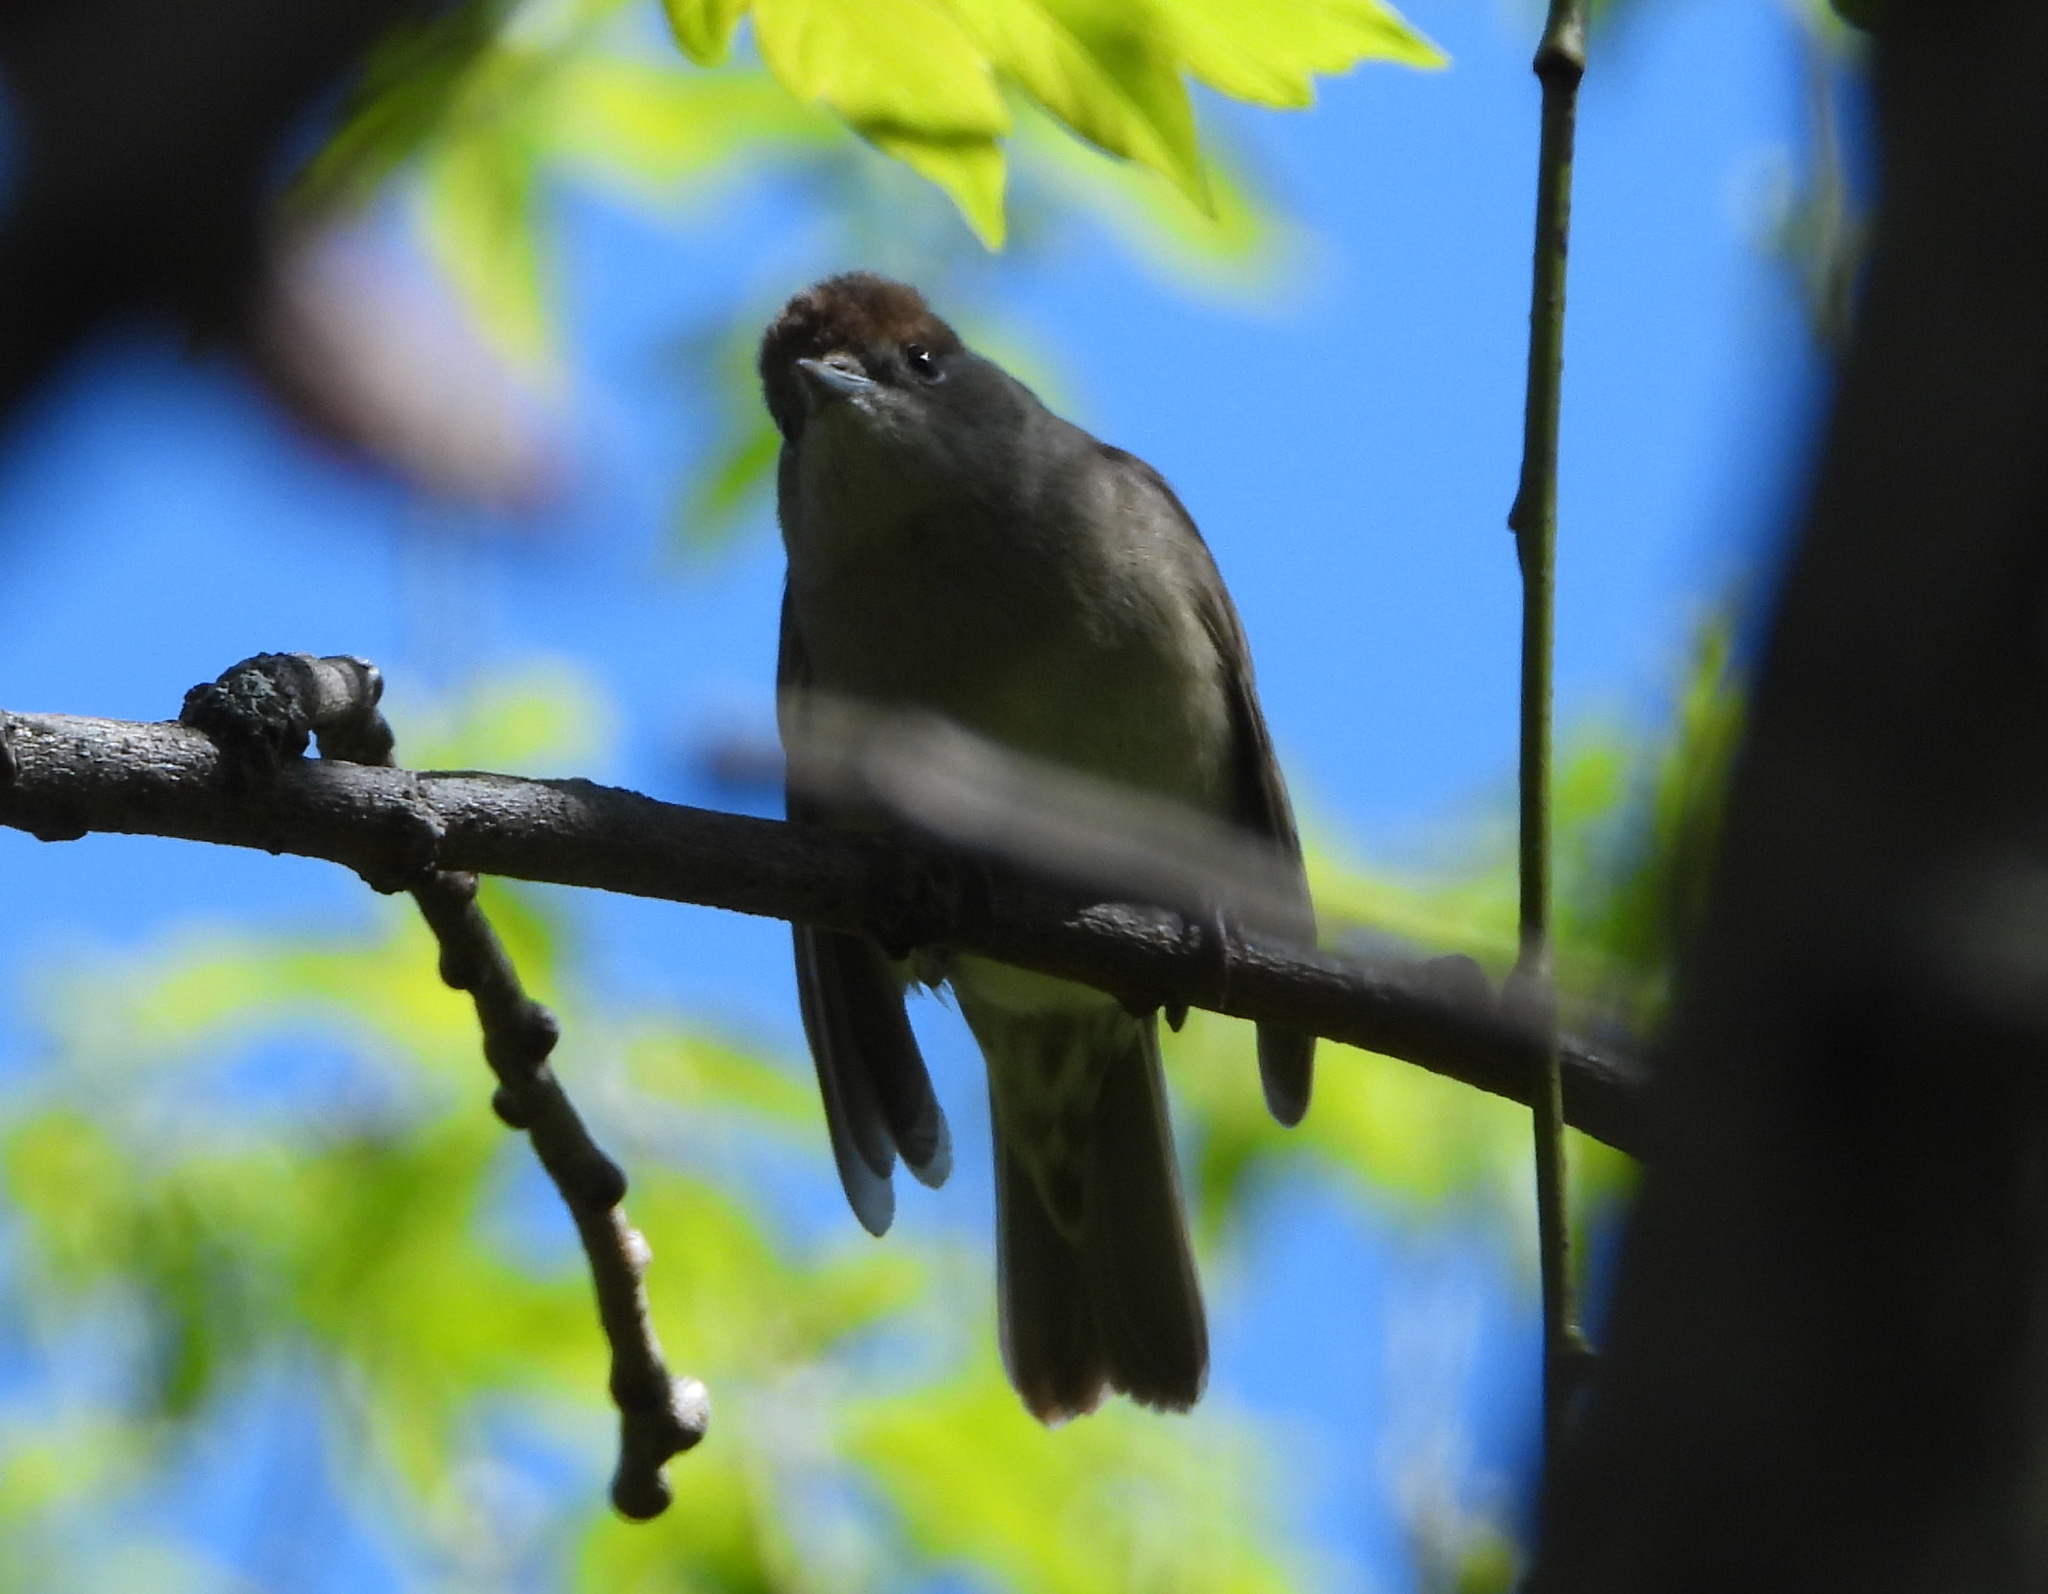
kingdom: Animalia
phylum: Chordata
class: Aves
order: Passeriformes
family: Sylviidae
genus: Sylvia
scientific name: Sylvia atricapilla
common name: Eurasian blackcap
